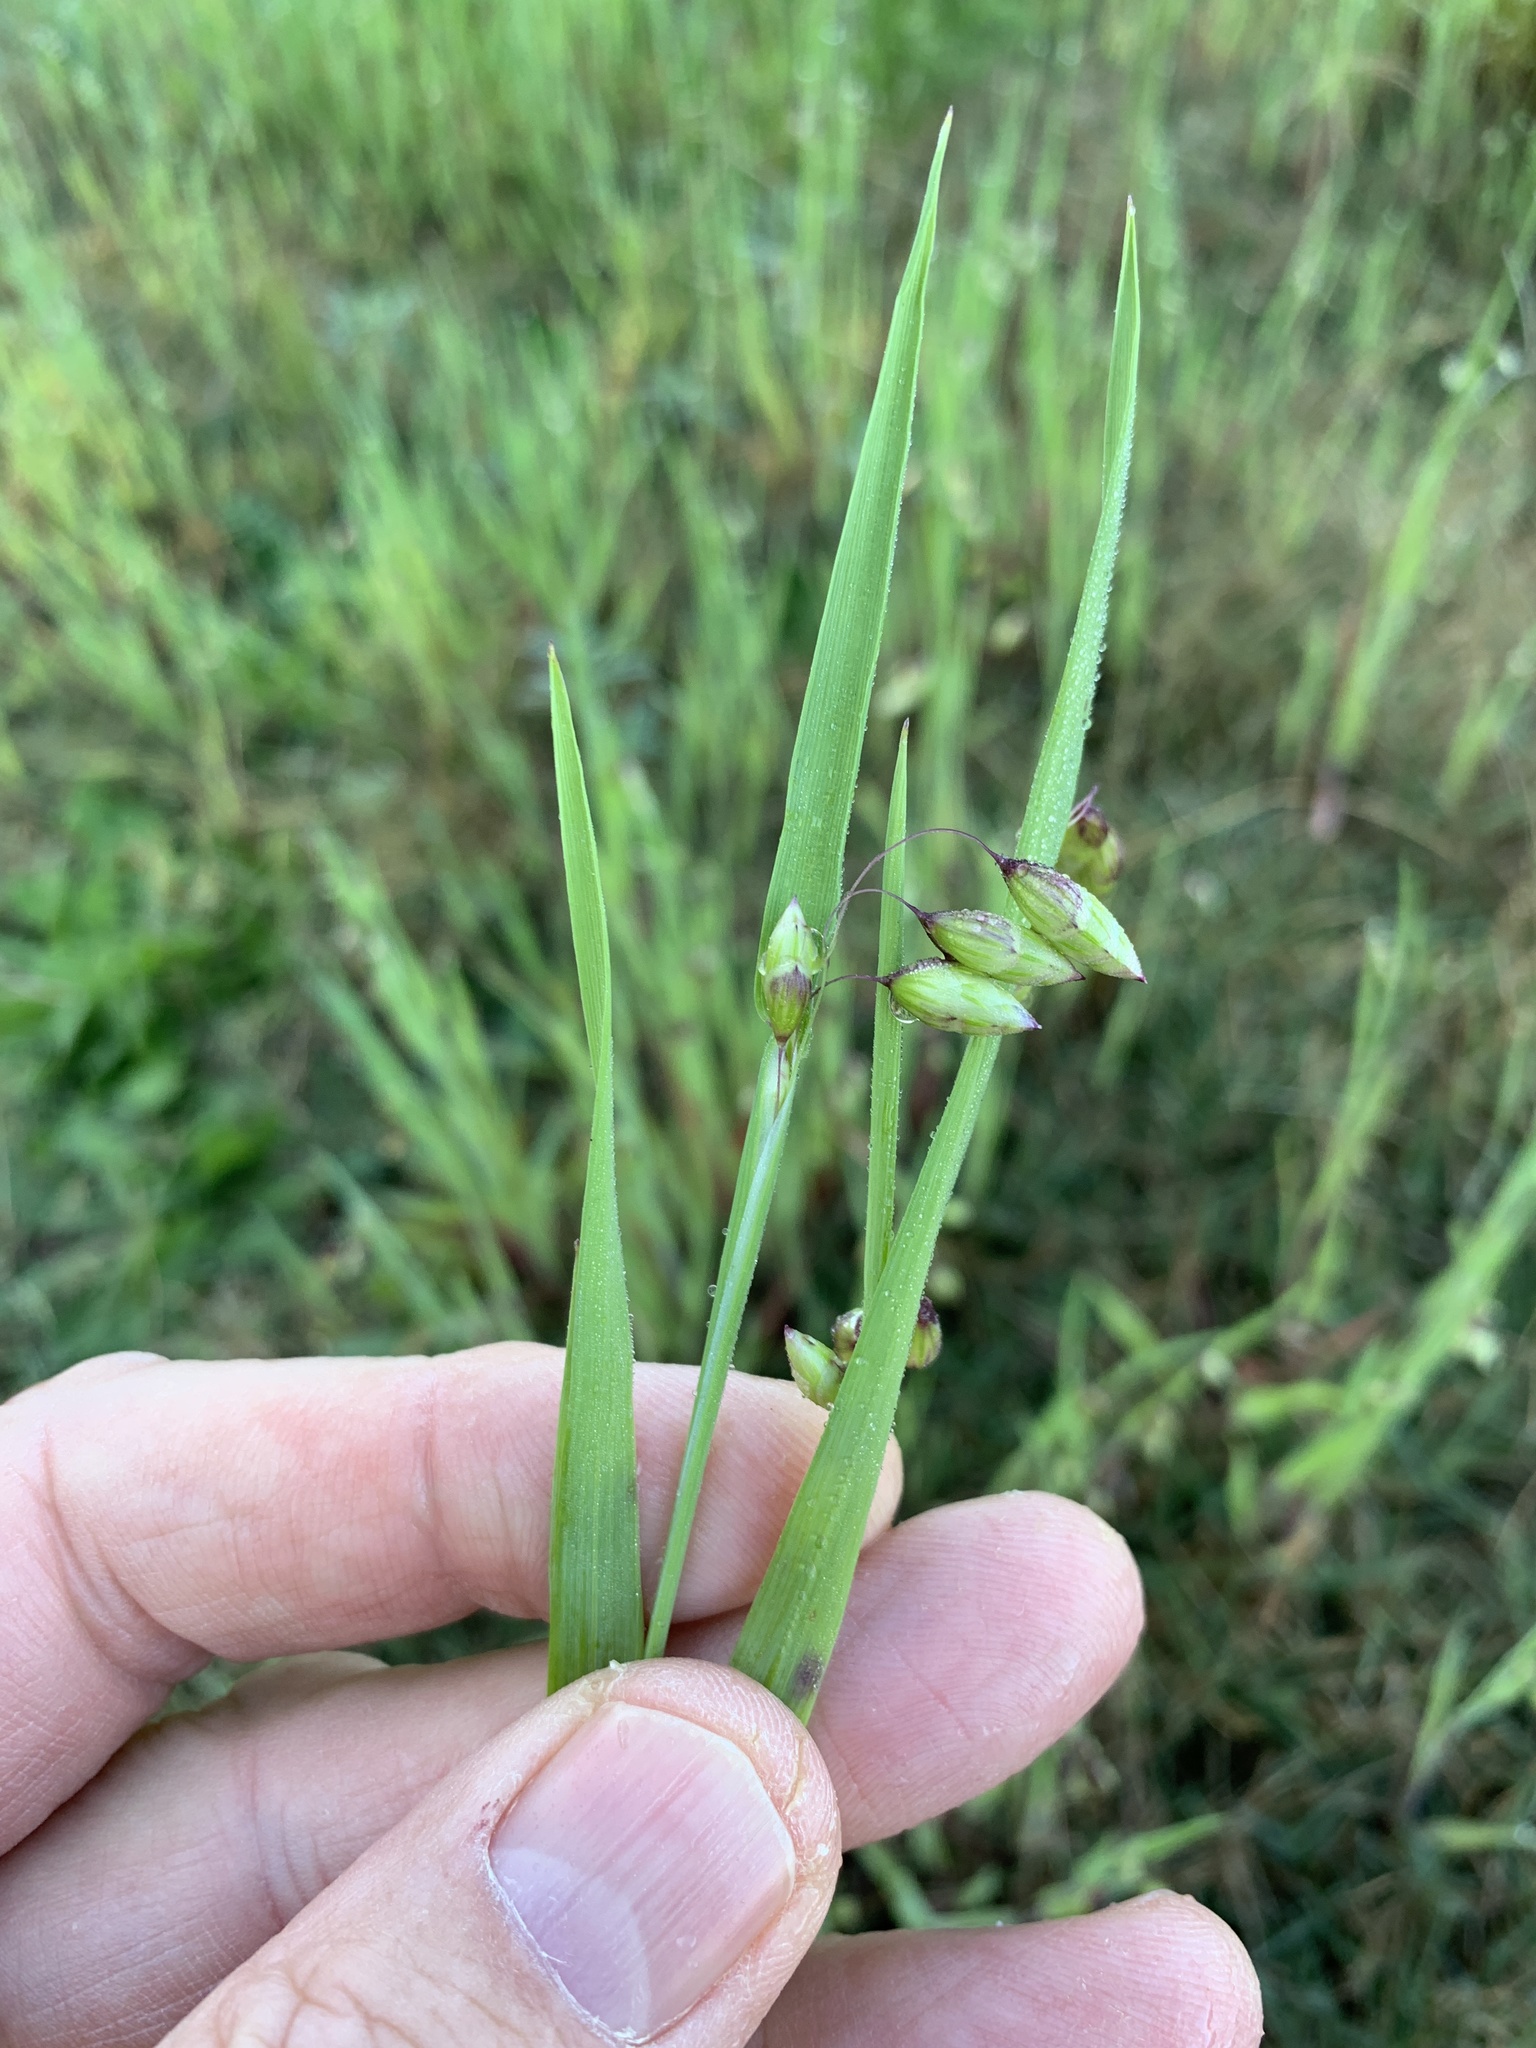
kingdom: Plantae
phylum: Tracheophyta
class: Liliopsida
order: Poales
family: Poaceae
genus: Briza
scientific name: Briza maxima
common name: Big quakinggrass
